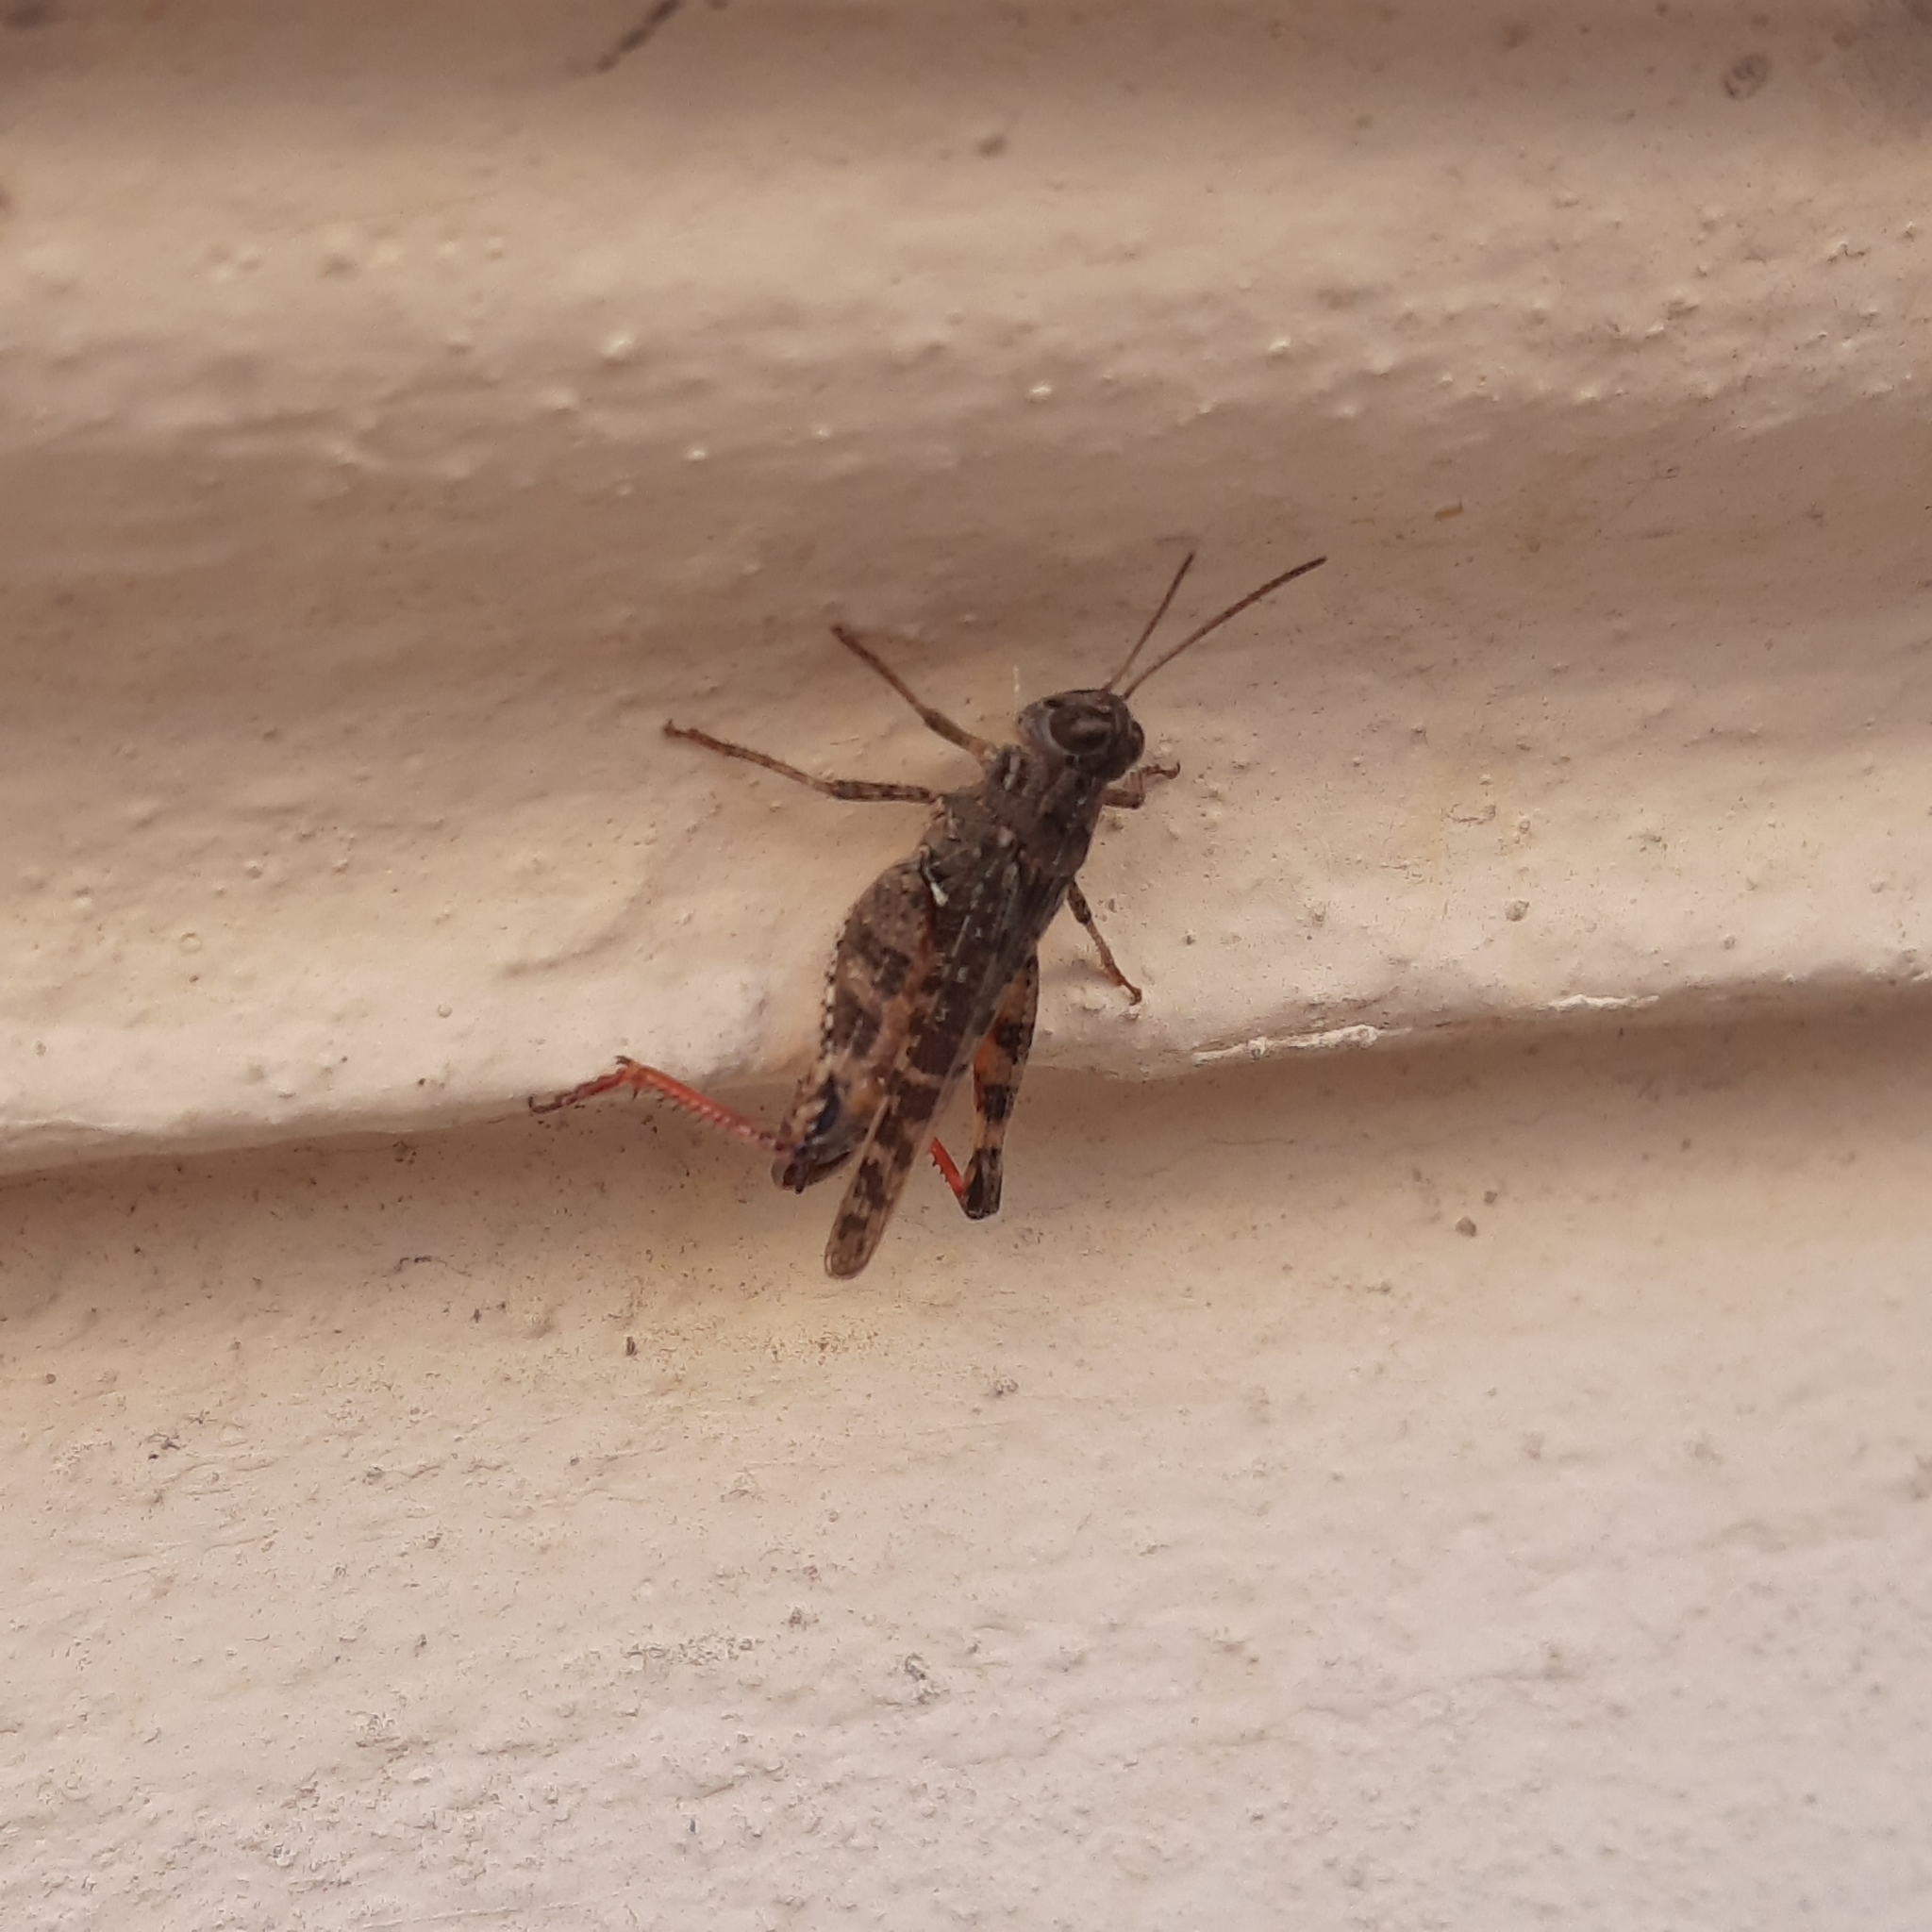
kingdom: Animalia
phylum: Arthropoda
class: Insecta
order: Orthoptera
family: Acrididae
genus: Calliptamus
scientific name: Calliptamus italicus
